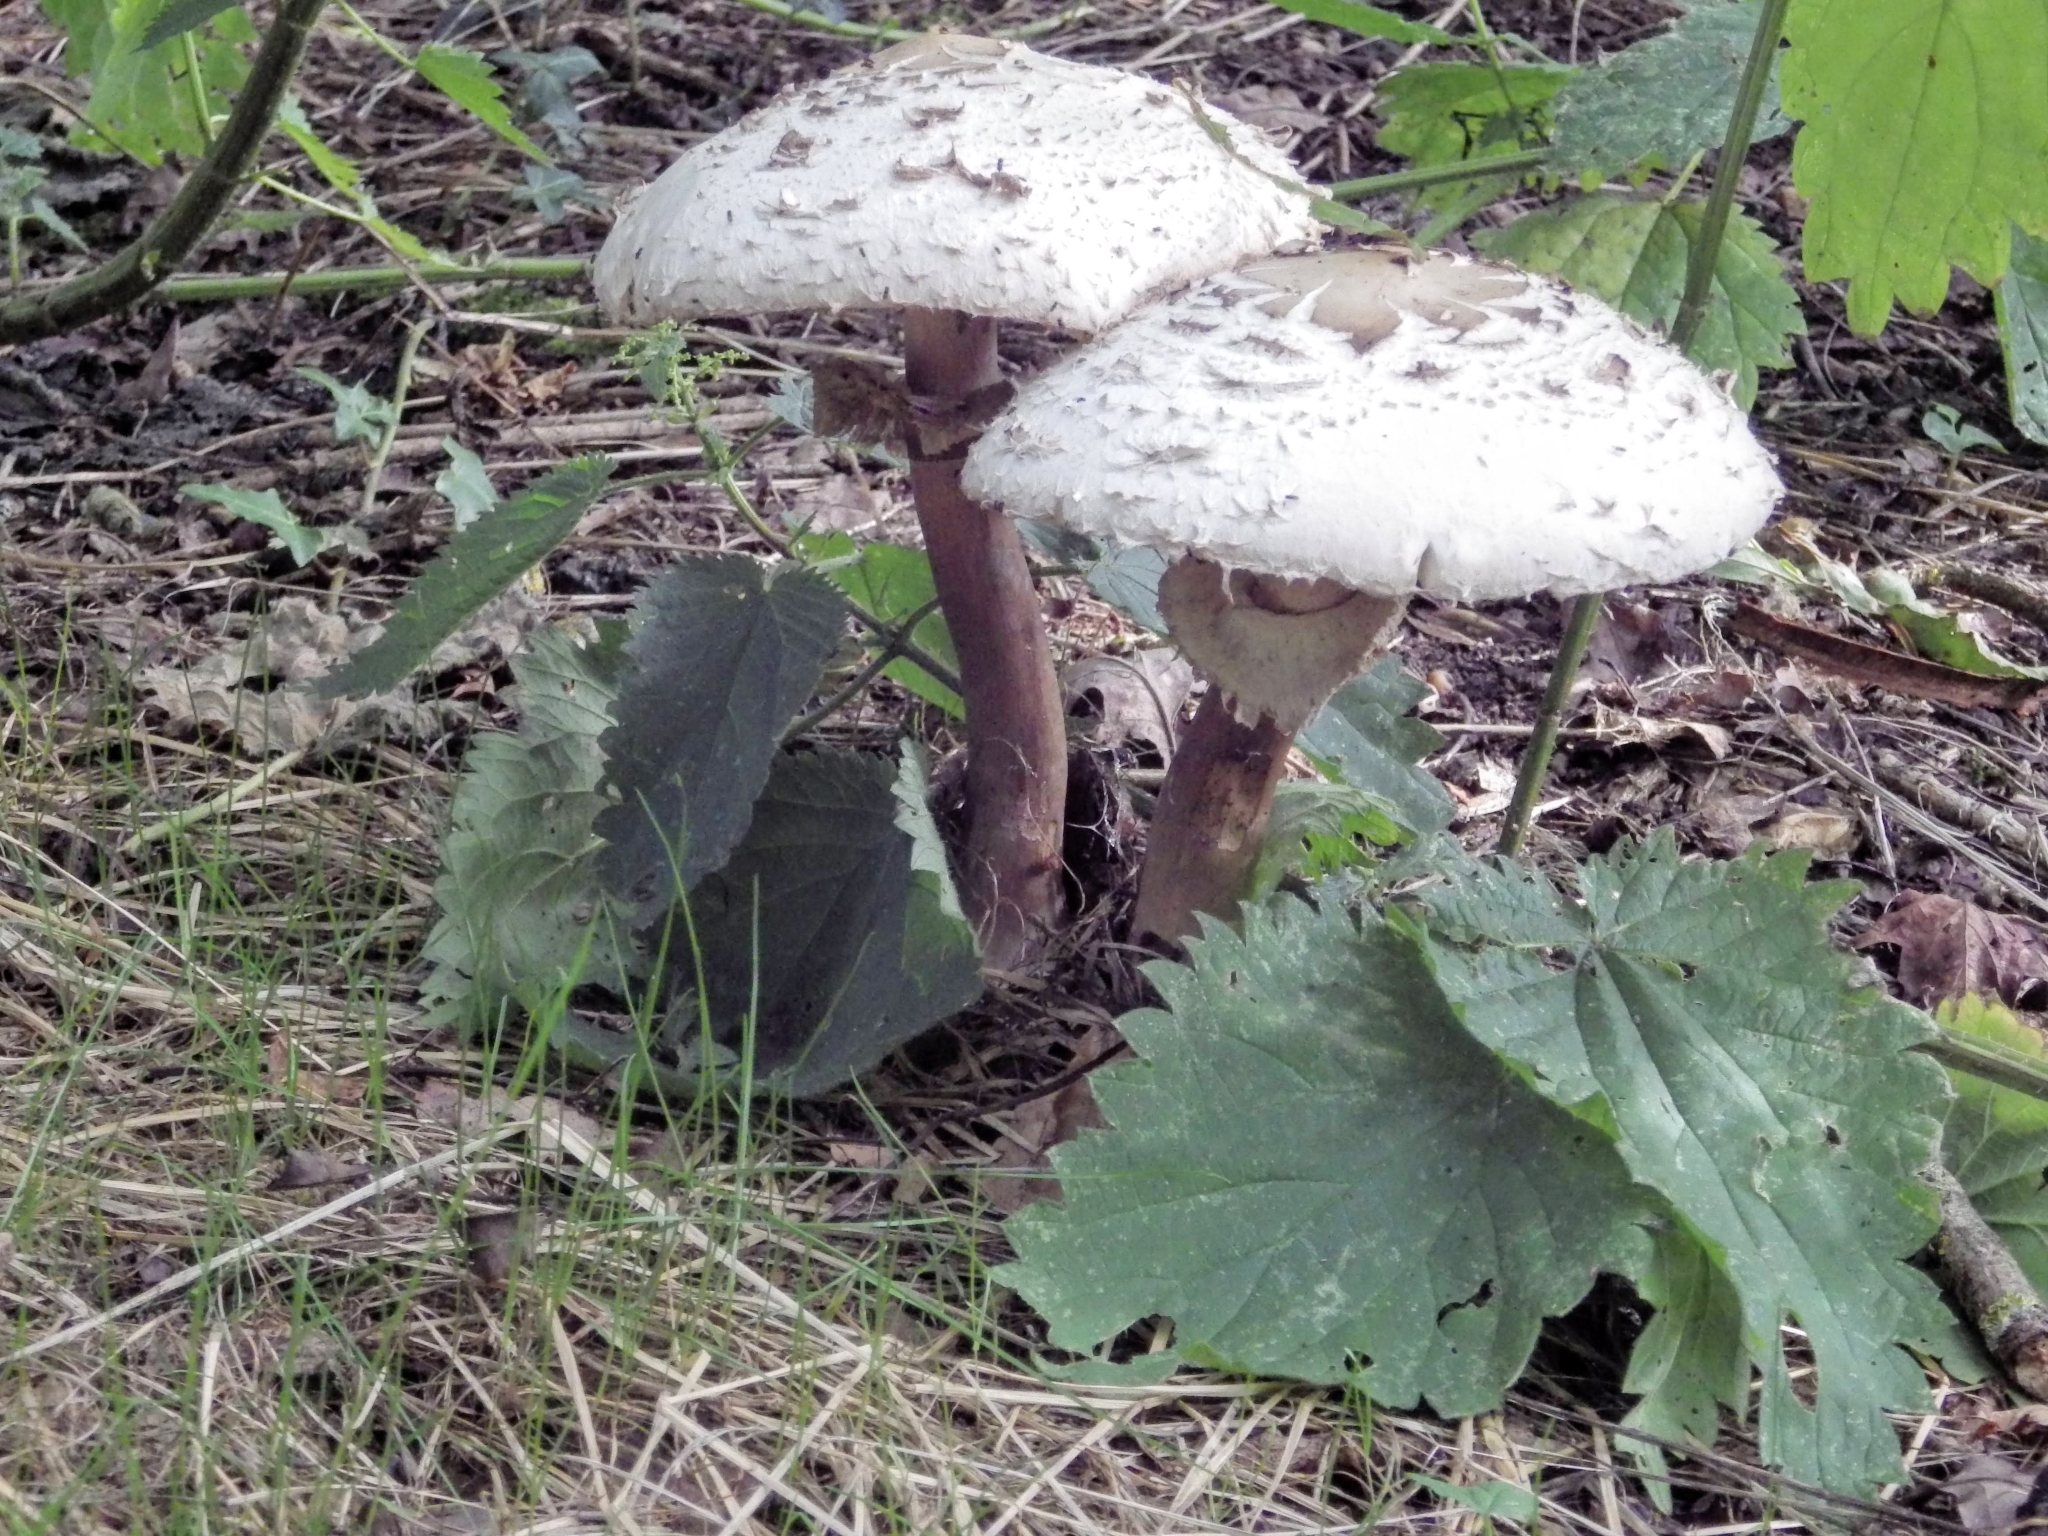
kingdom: Fungi
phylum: Basidiomycota
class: Agaricomycetes
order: Agaricales
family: Agaricaceae
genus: Macrolepiota
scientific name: Macrolepiota procera
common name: Parasol
